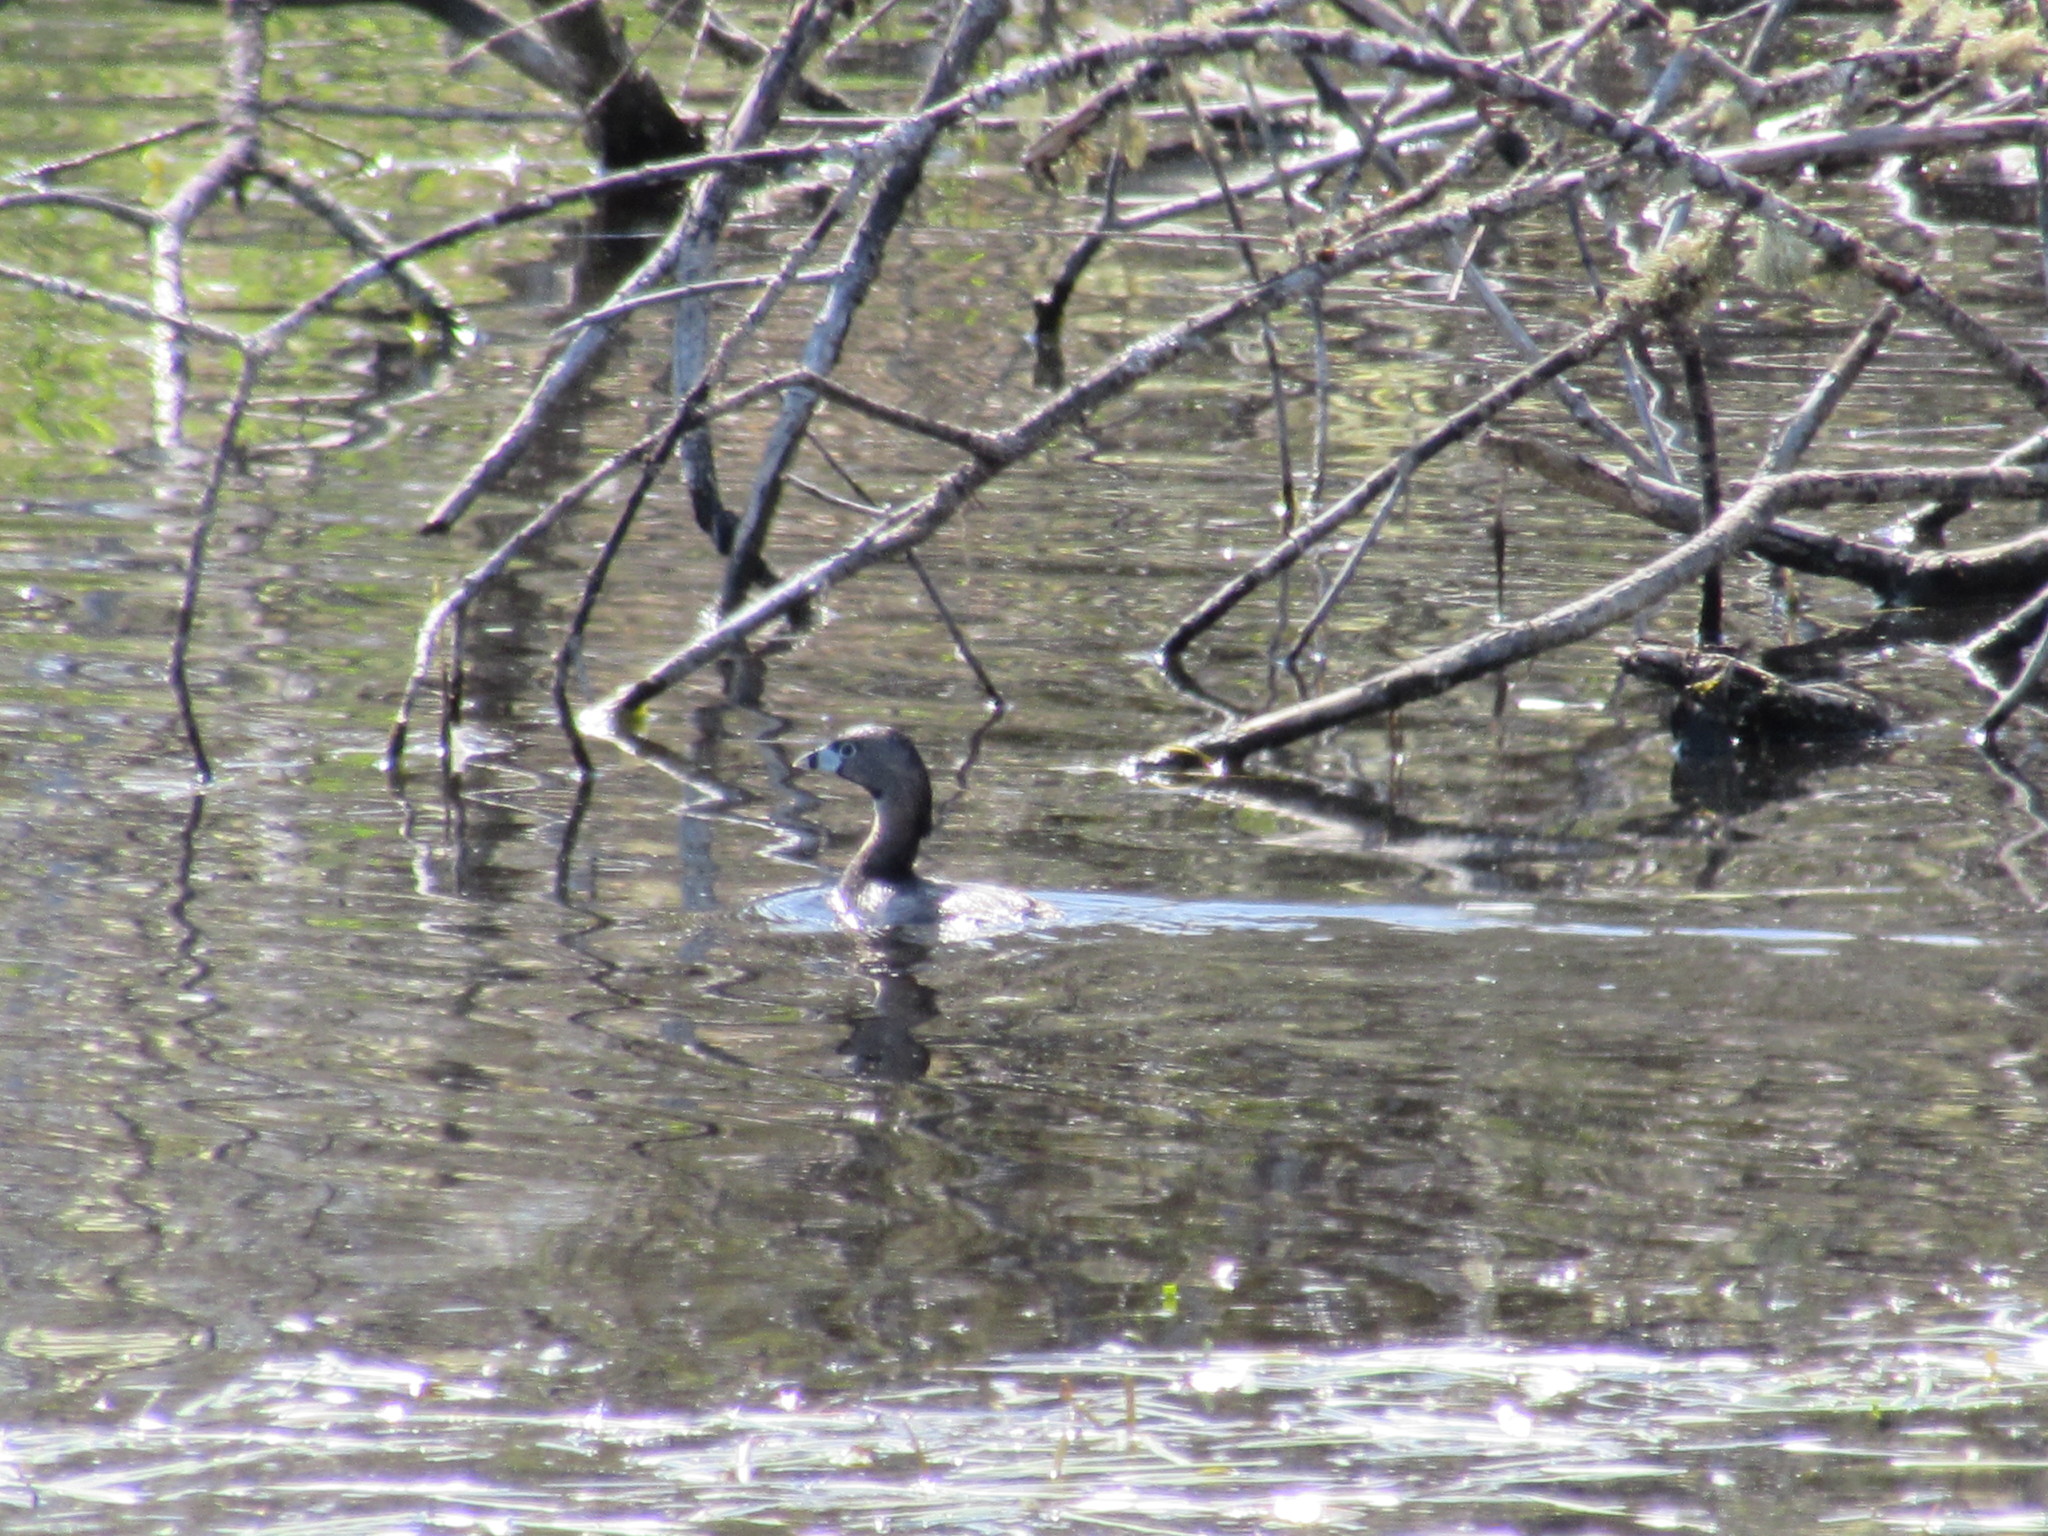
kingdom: Animalia
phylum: Chordata
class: Aves
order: Podicipediformes
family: Podicipedidae
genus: Podilymbus
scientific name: Podilymbus podiceps
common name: Pied-billed grebe
